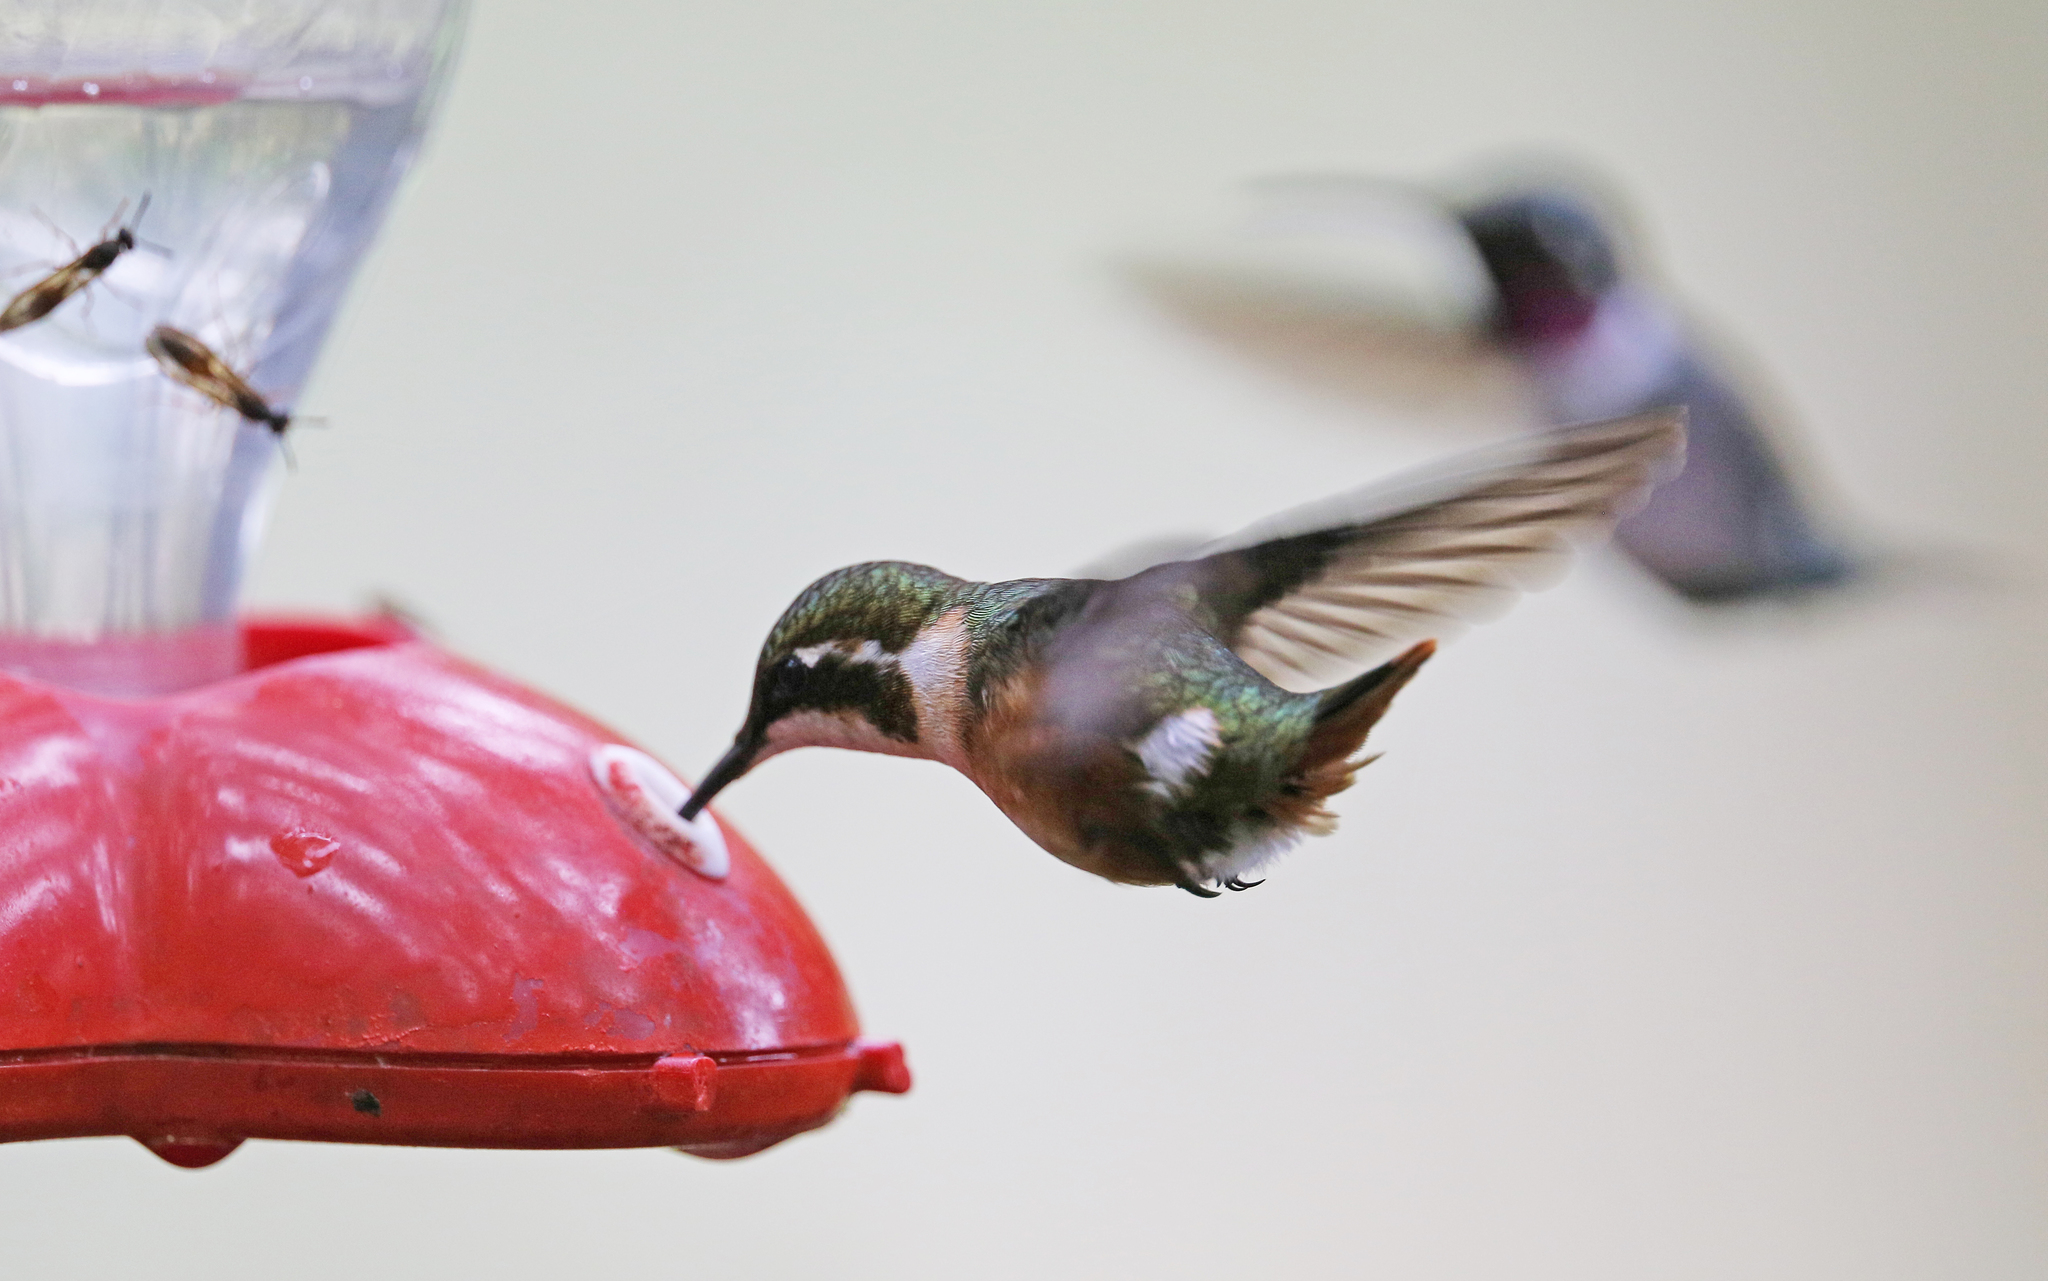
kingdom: Animalia
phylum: Chordata
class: Aves
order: Apodiformes
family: Trochilidae
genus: Chaetocercus
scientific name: Chaetocercus mulsant
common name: White-bellied woodstar
